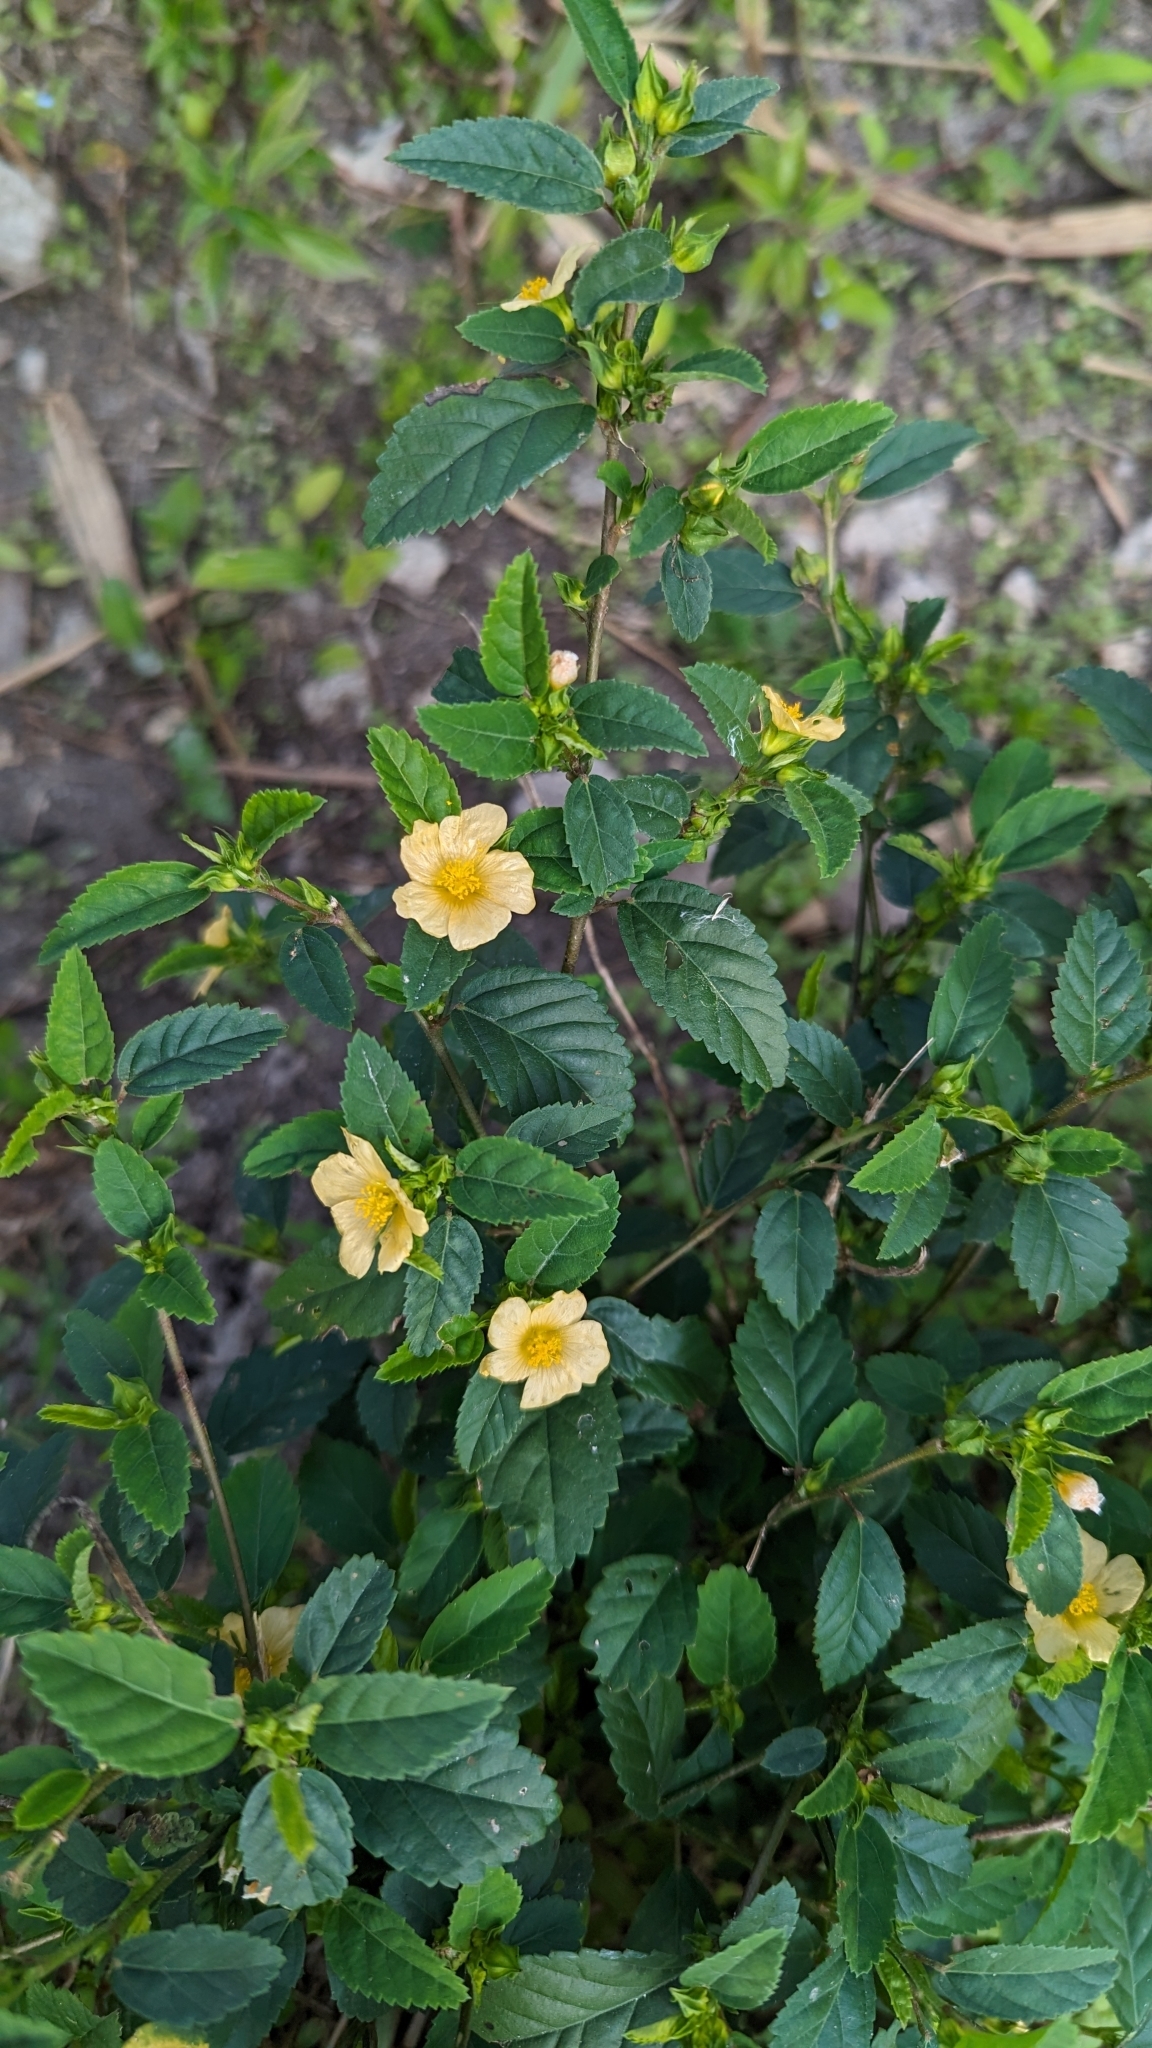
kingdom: Plantae
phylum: Tracheophyta
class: Magnoliopsida
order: Malvales
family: Malvaceae
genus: Sida
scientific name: Sida ulmifolia
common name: Broom weed
